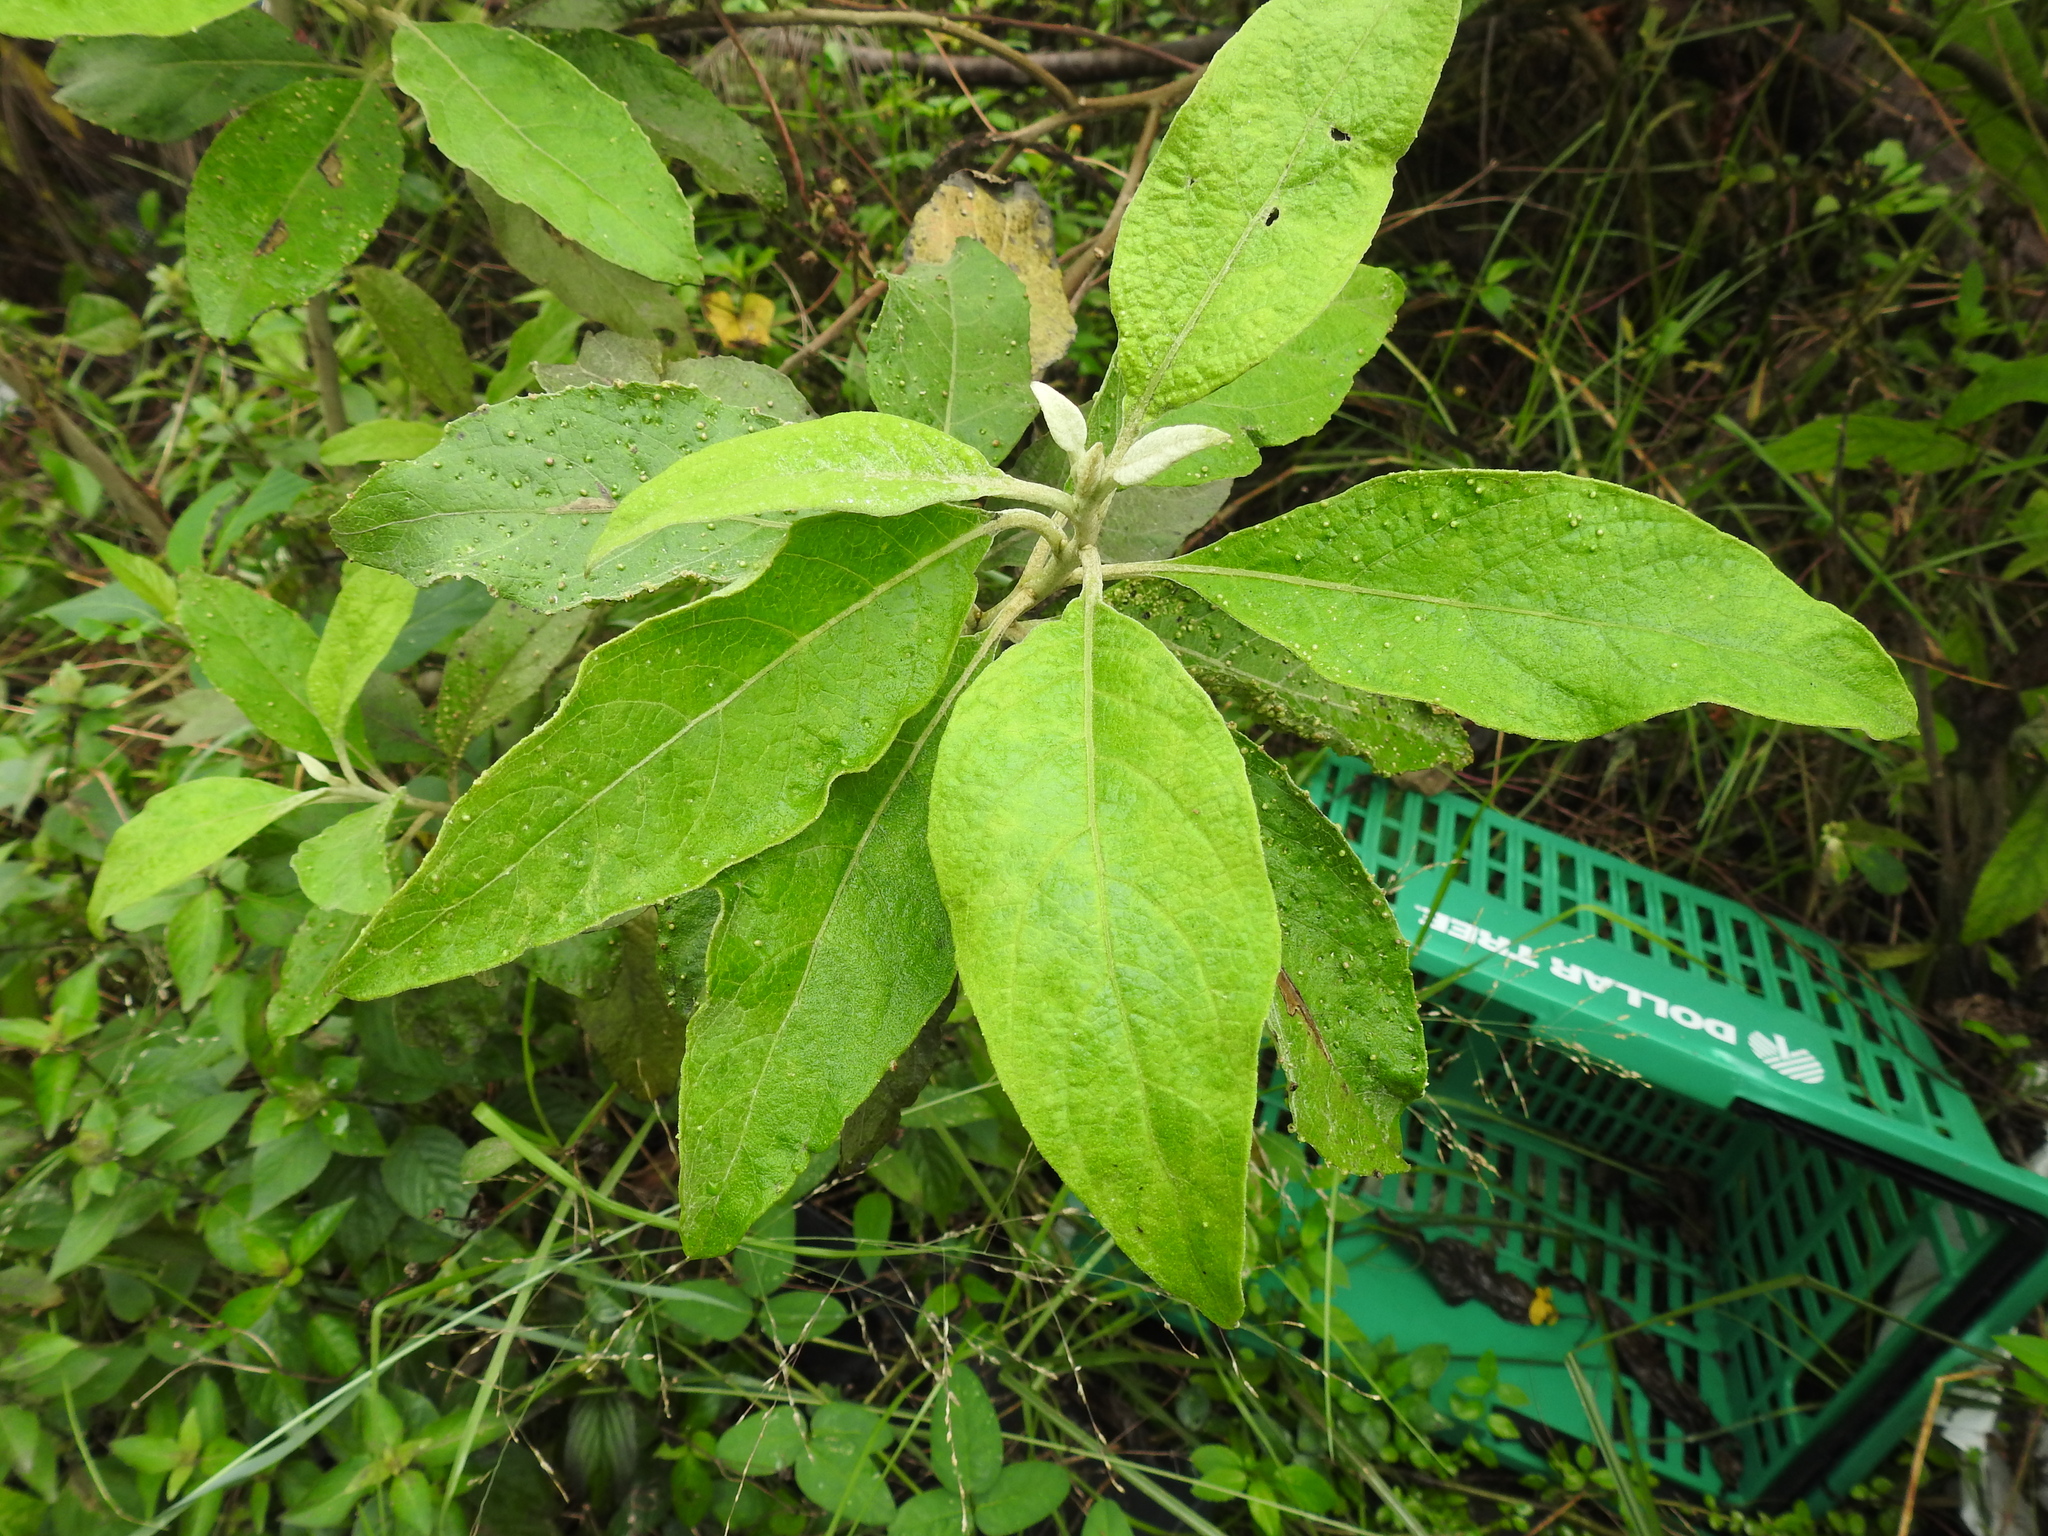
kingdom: Plantae
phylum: Tracheophyta
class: Magnoliopsida
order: Asterales
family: Asteraceae
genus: Pluchea
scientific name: Pluchea carolinensis
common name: Marsh fleabane
